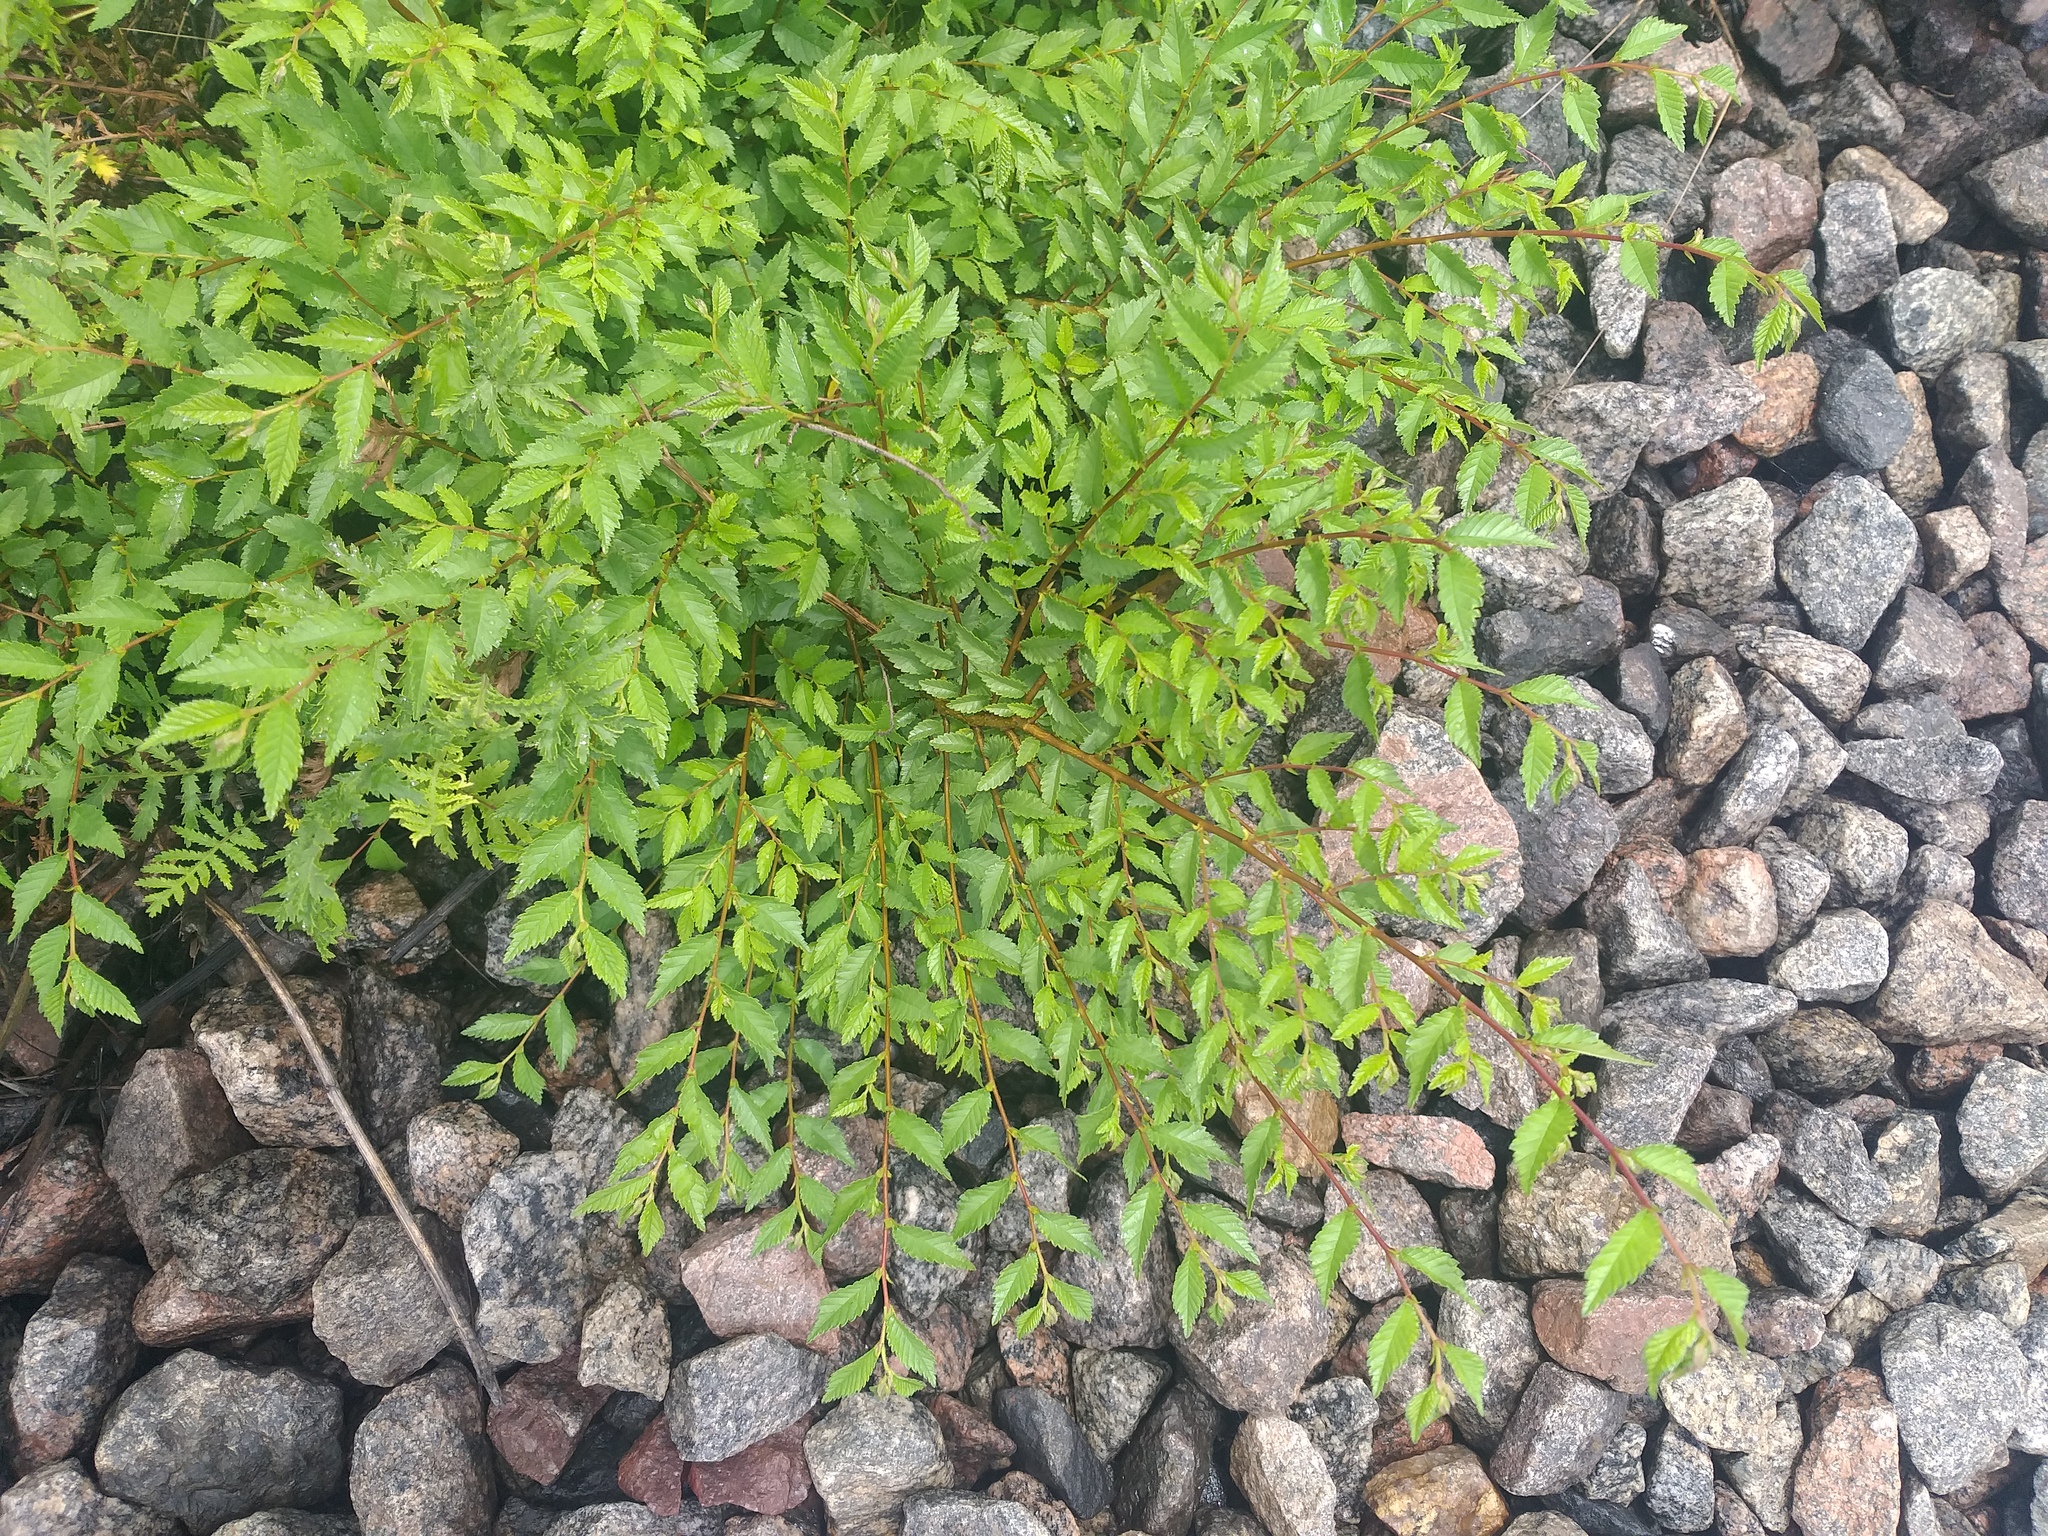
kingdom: Plantae
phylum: Tracheophyta
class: Magnoliopsida
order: Rosales
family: Ulmaceae
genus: Ulmus
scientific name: Ulmus pumila
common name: Siberian elm
